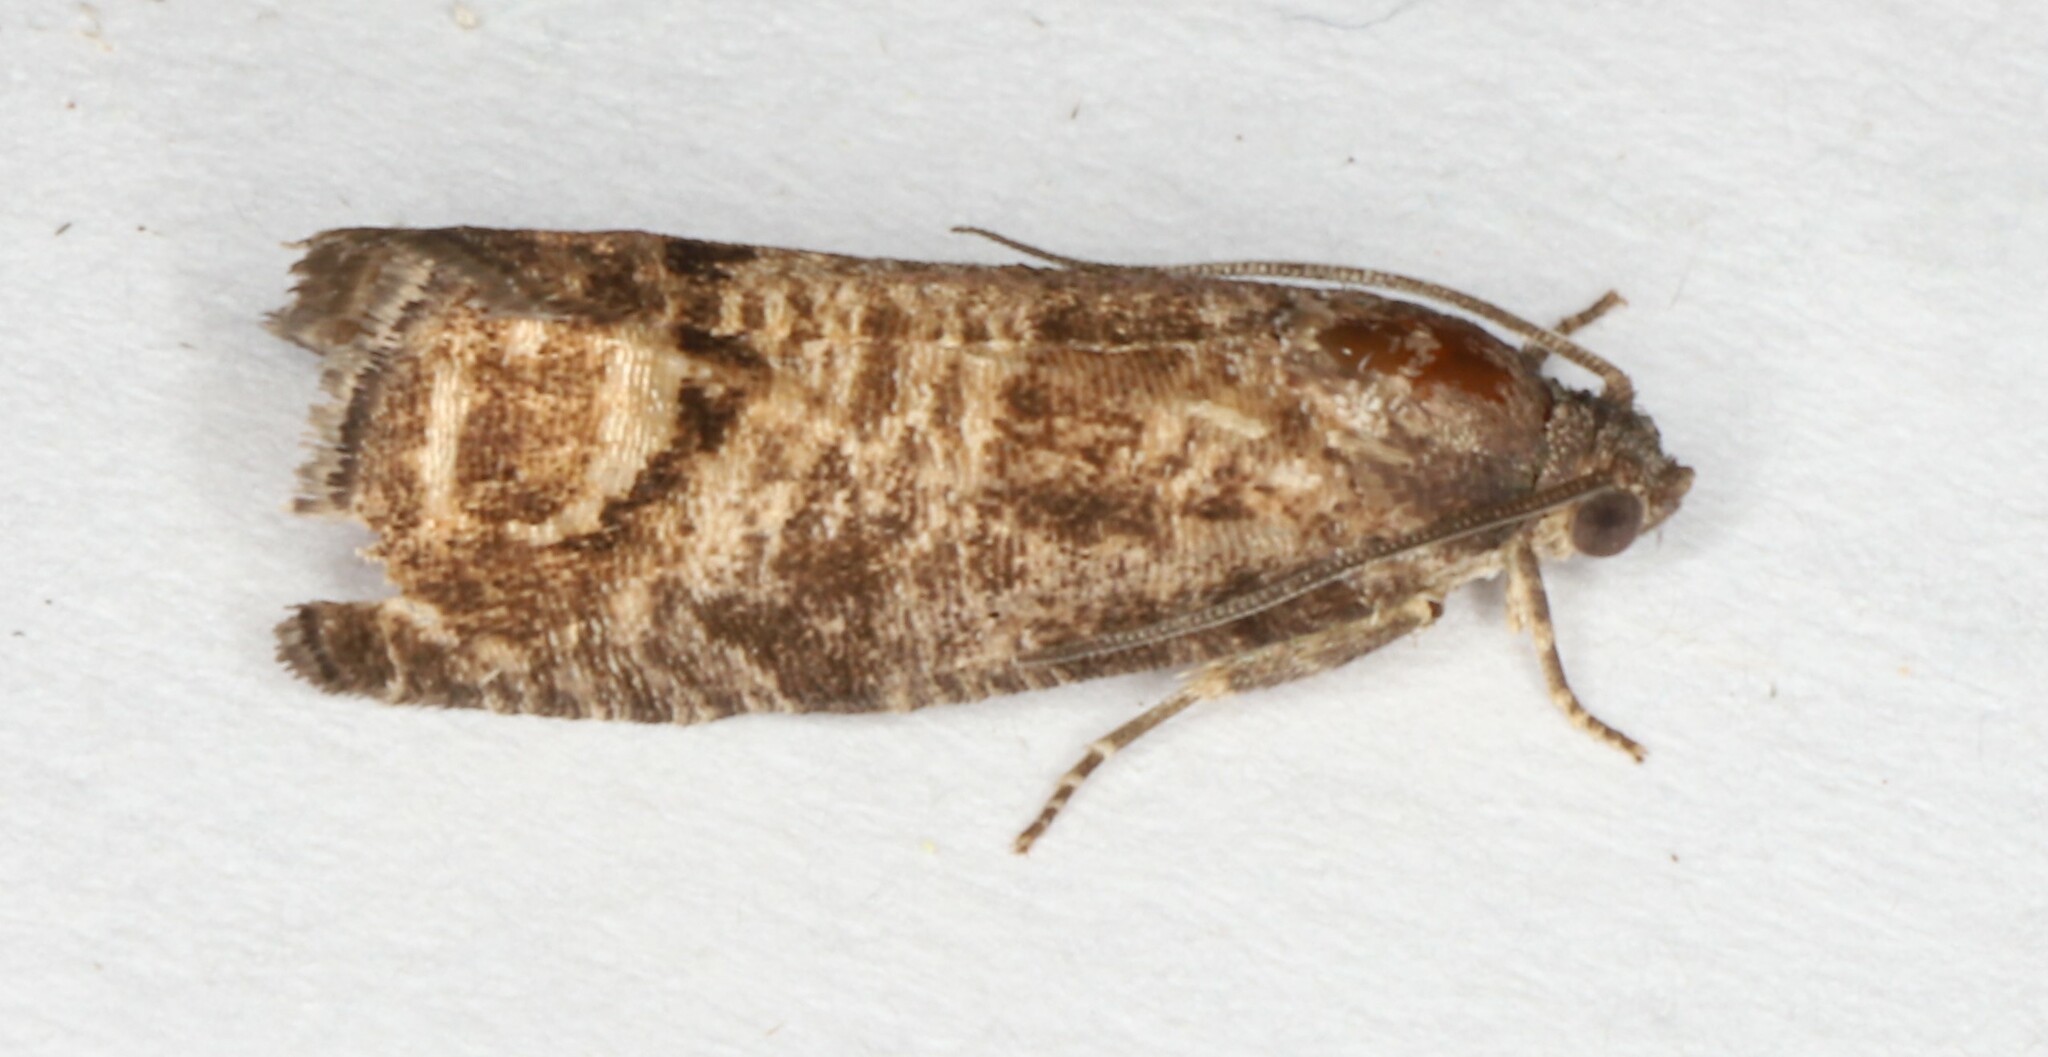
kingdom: Animalia
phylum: Arthropoda
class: Insecta
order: Lepidoptera
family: Tortricidae
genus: Cydia
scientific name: Cydia pomonella
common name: Codling moth
